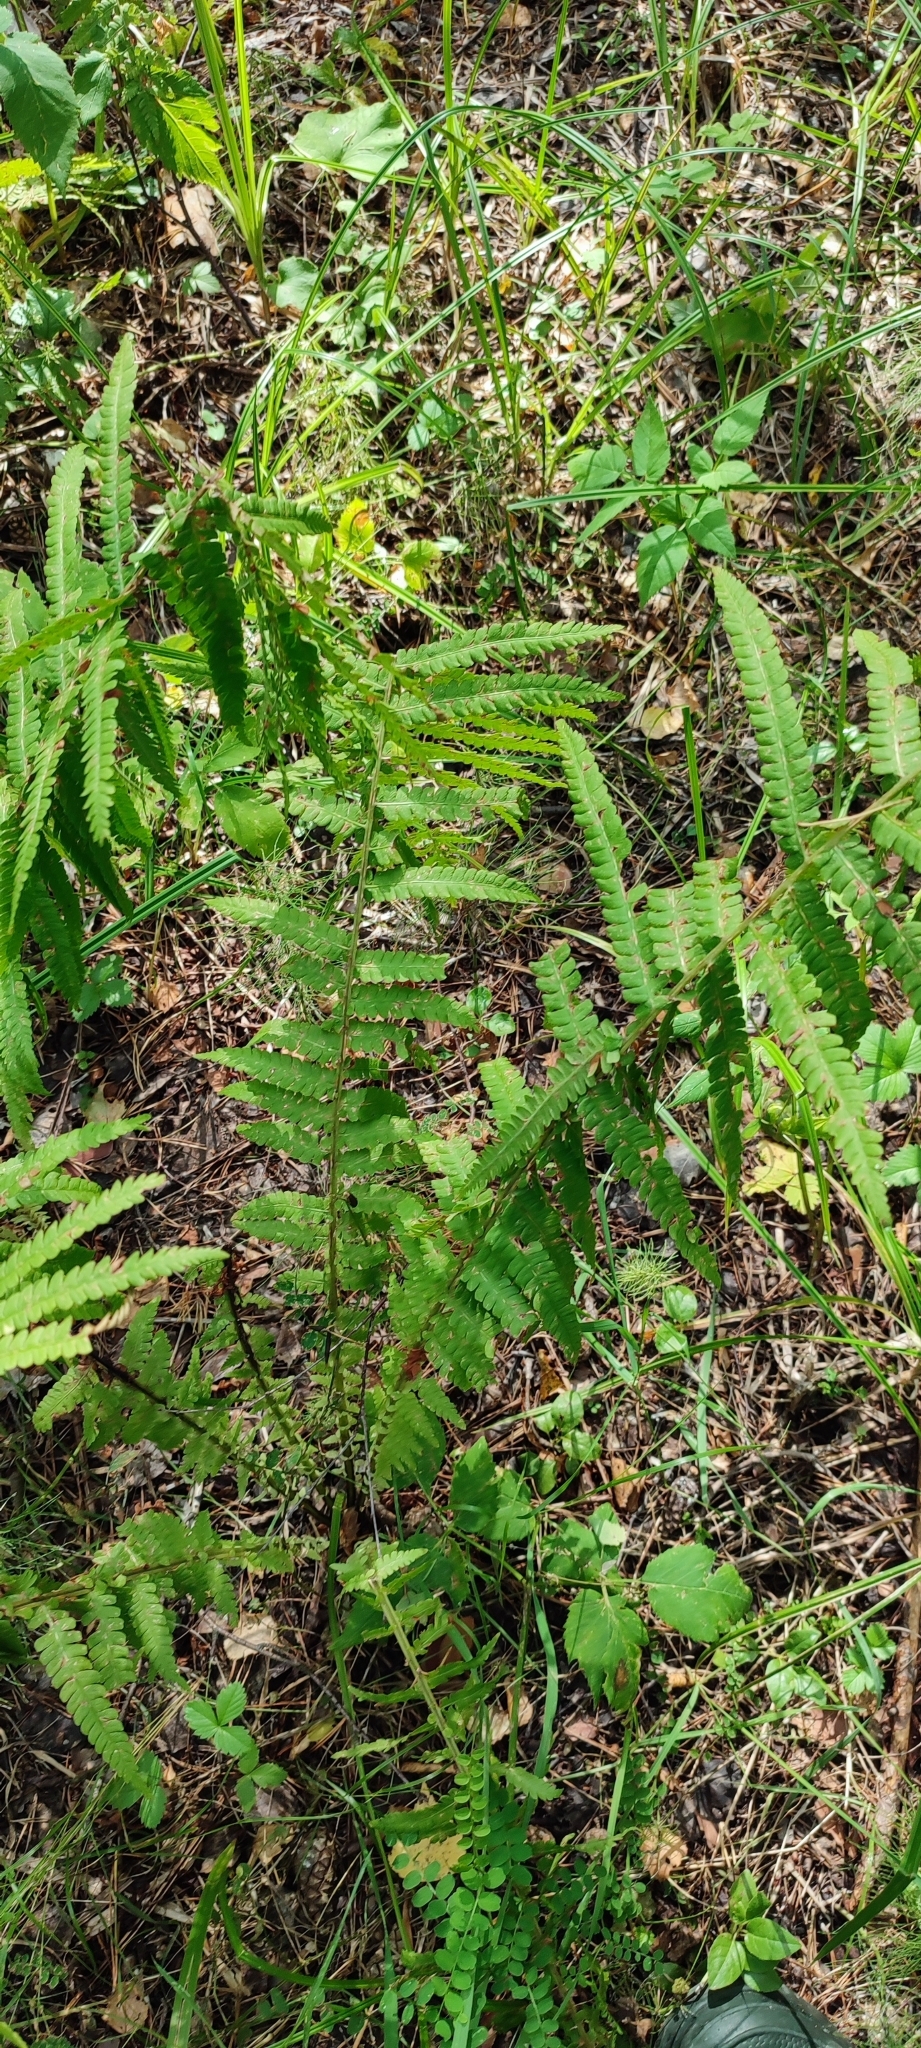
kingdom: Plantae
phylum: Tracheophyta
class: Polypodiopsida
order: Polypodiales
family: Onocleaceae
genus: Matteuccia
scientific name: Matteuccia struthiopteris
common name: Ostrich fern
